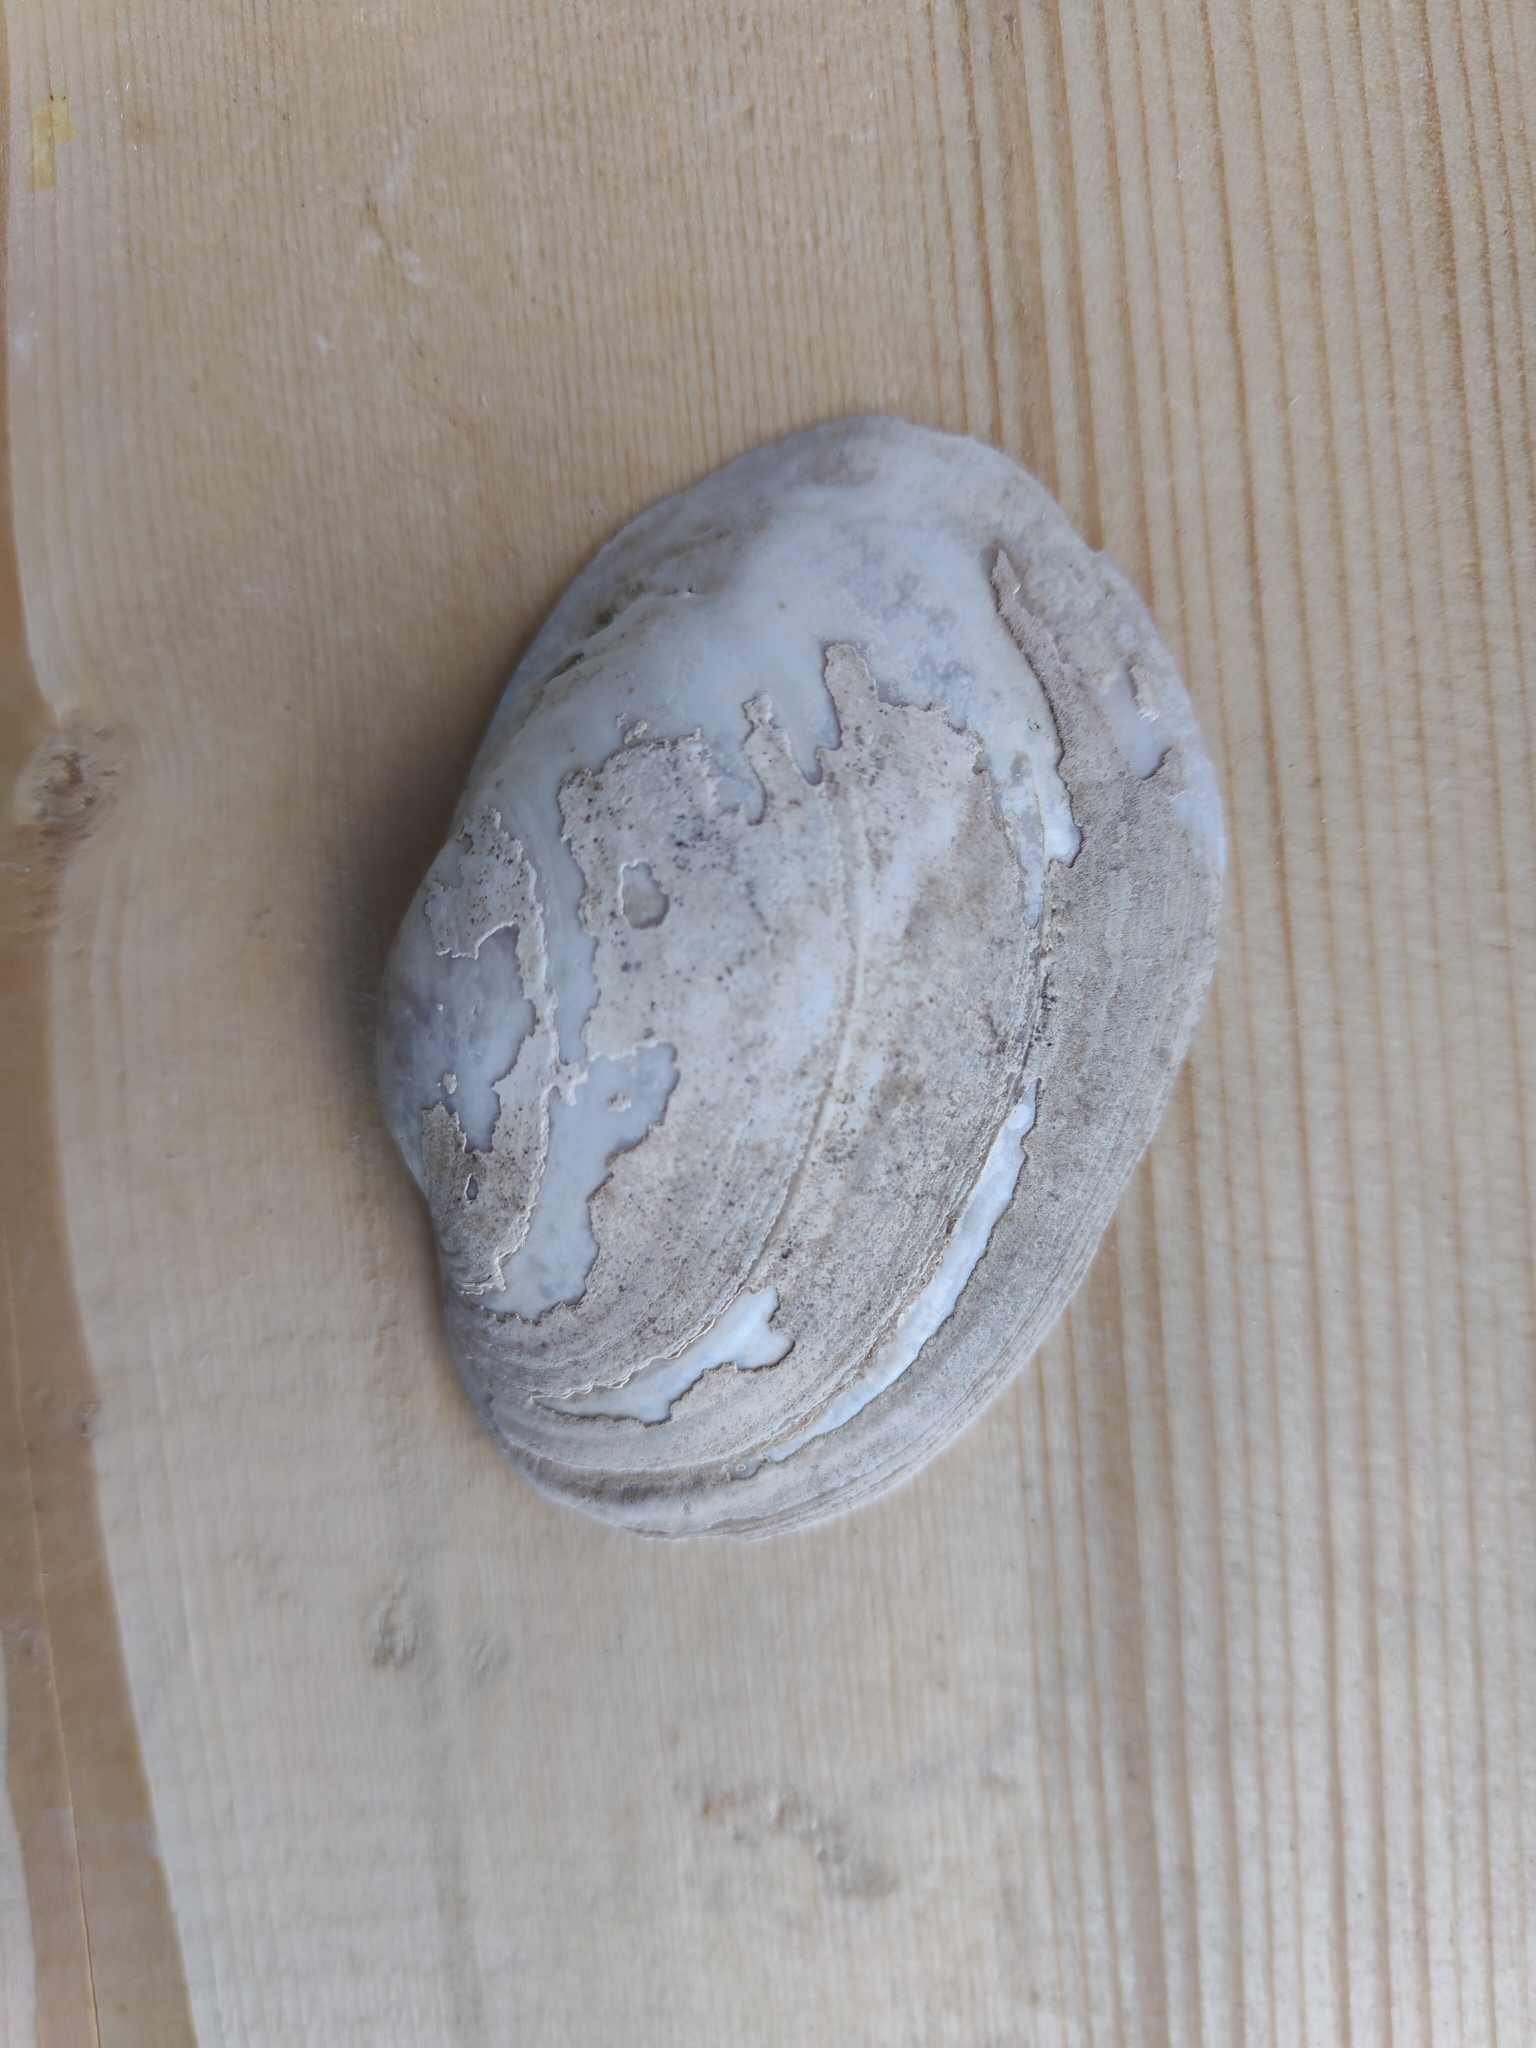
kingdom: Animalia
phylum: Mollusca
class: Bivalvia
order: Unionida
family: Unionidae
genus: Lampsilis
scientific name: Lampsilis cardium
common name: Plain pocketbook
